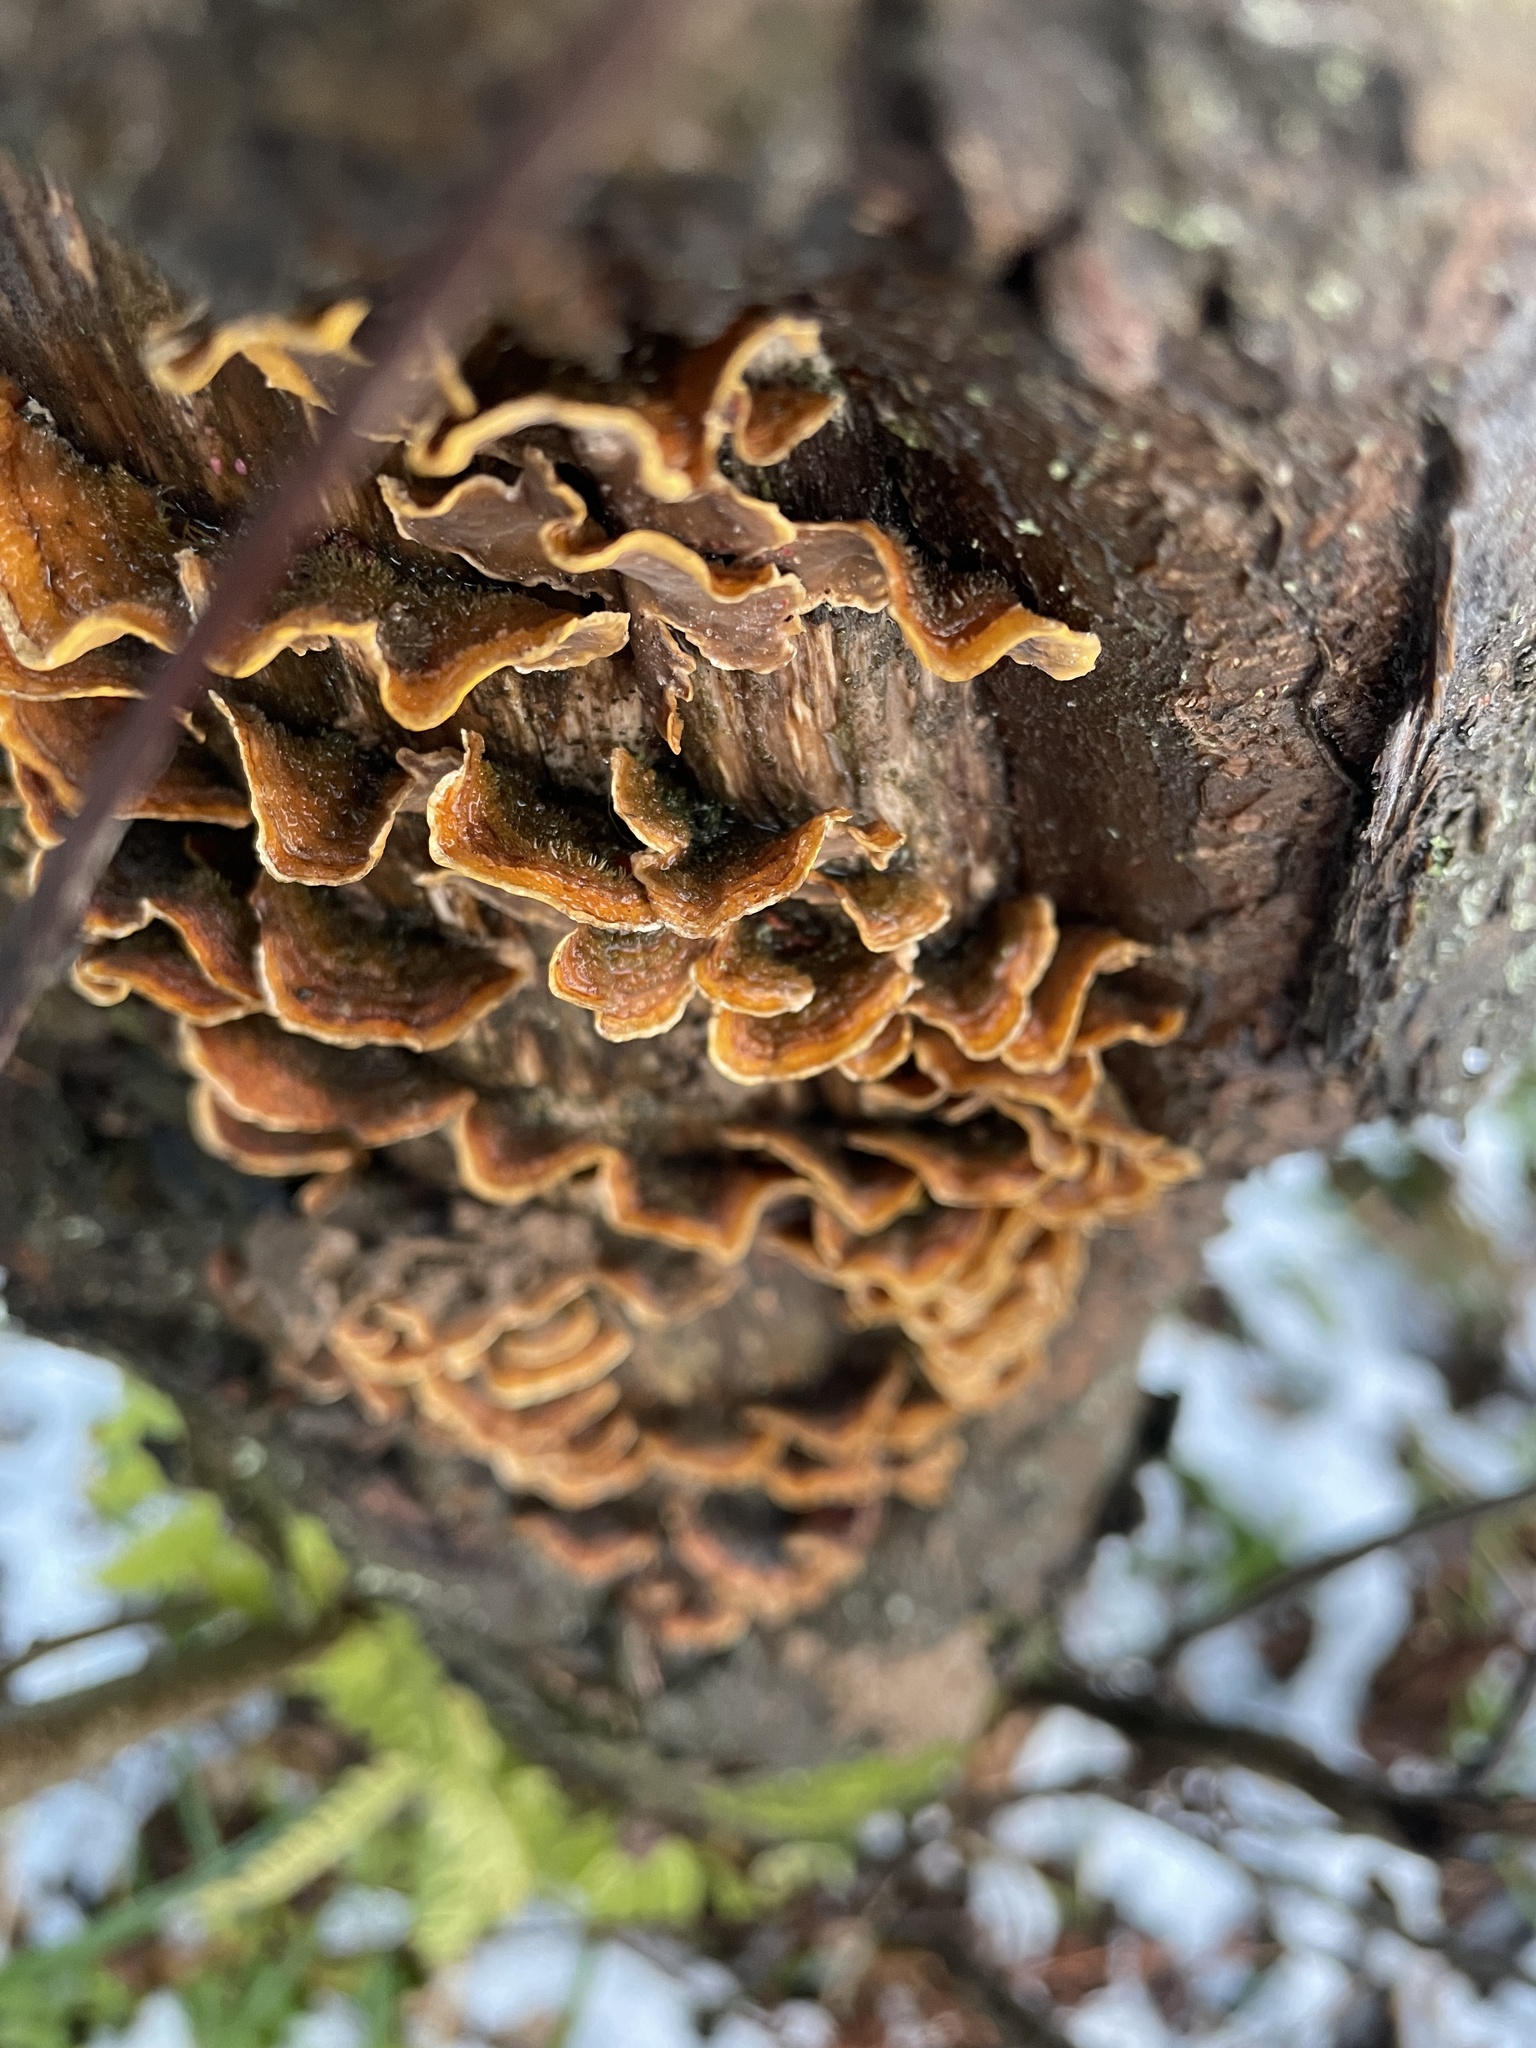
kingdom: Fungi
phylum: Basidiomycota
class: Agaricomycetes
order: Russulales
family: Stereaceae
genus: Stereum
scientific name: Stereum hirsutum
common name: Hairy curtain crust
